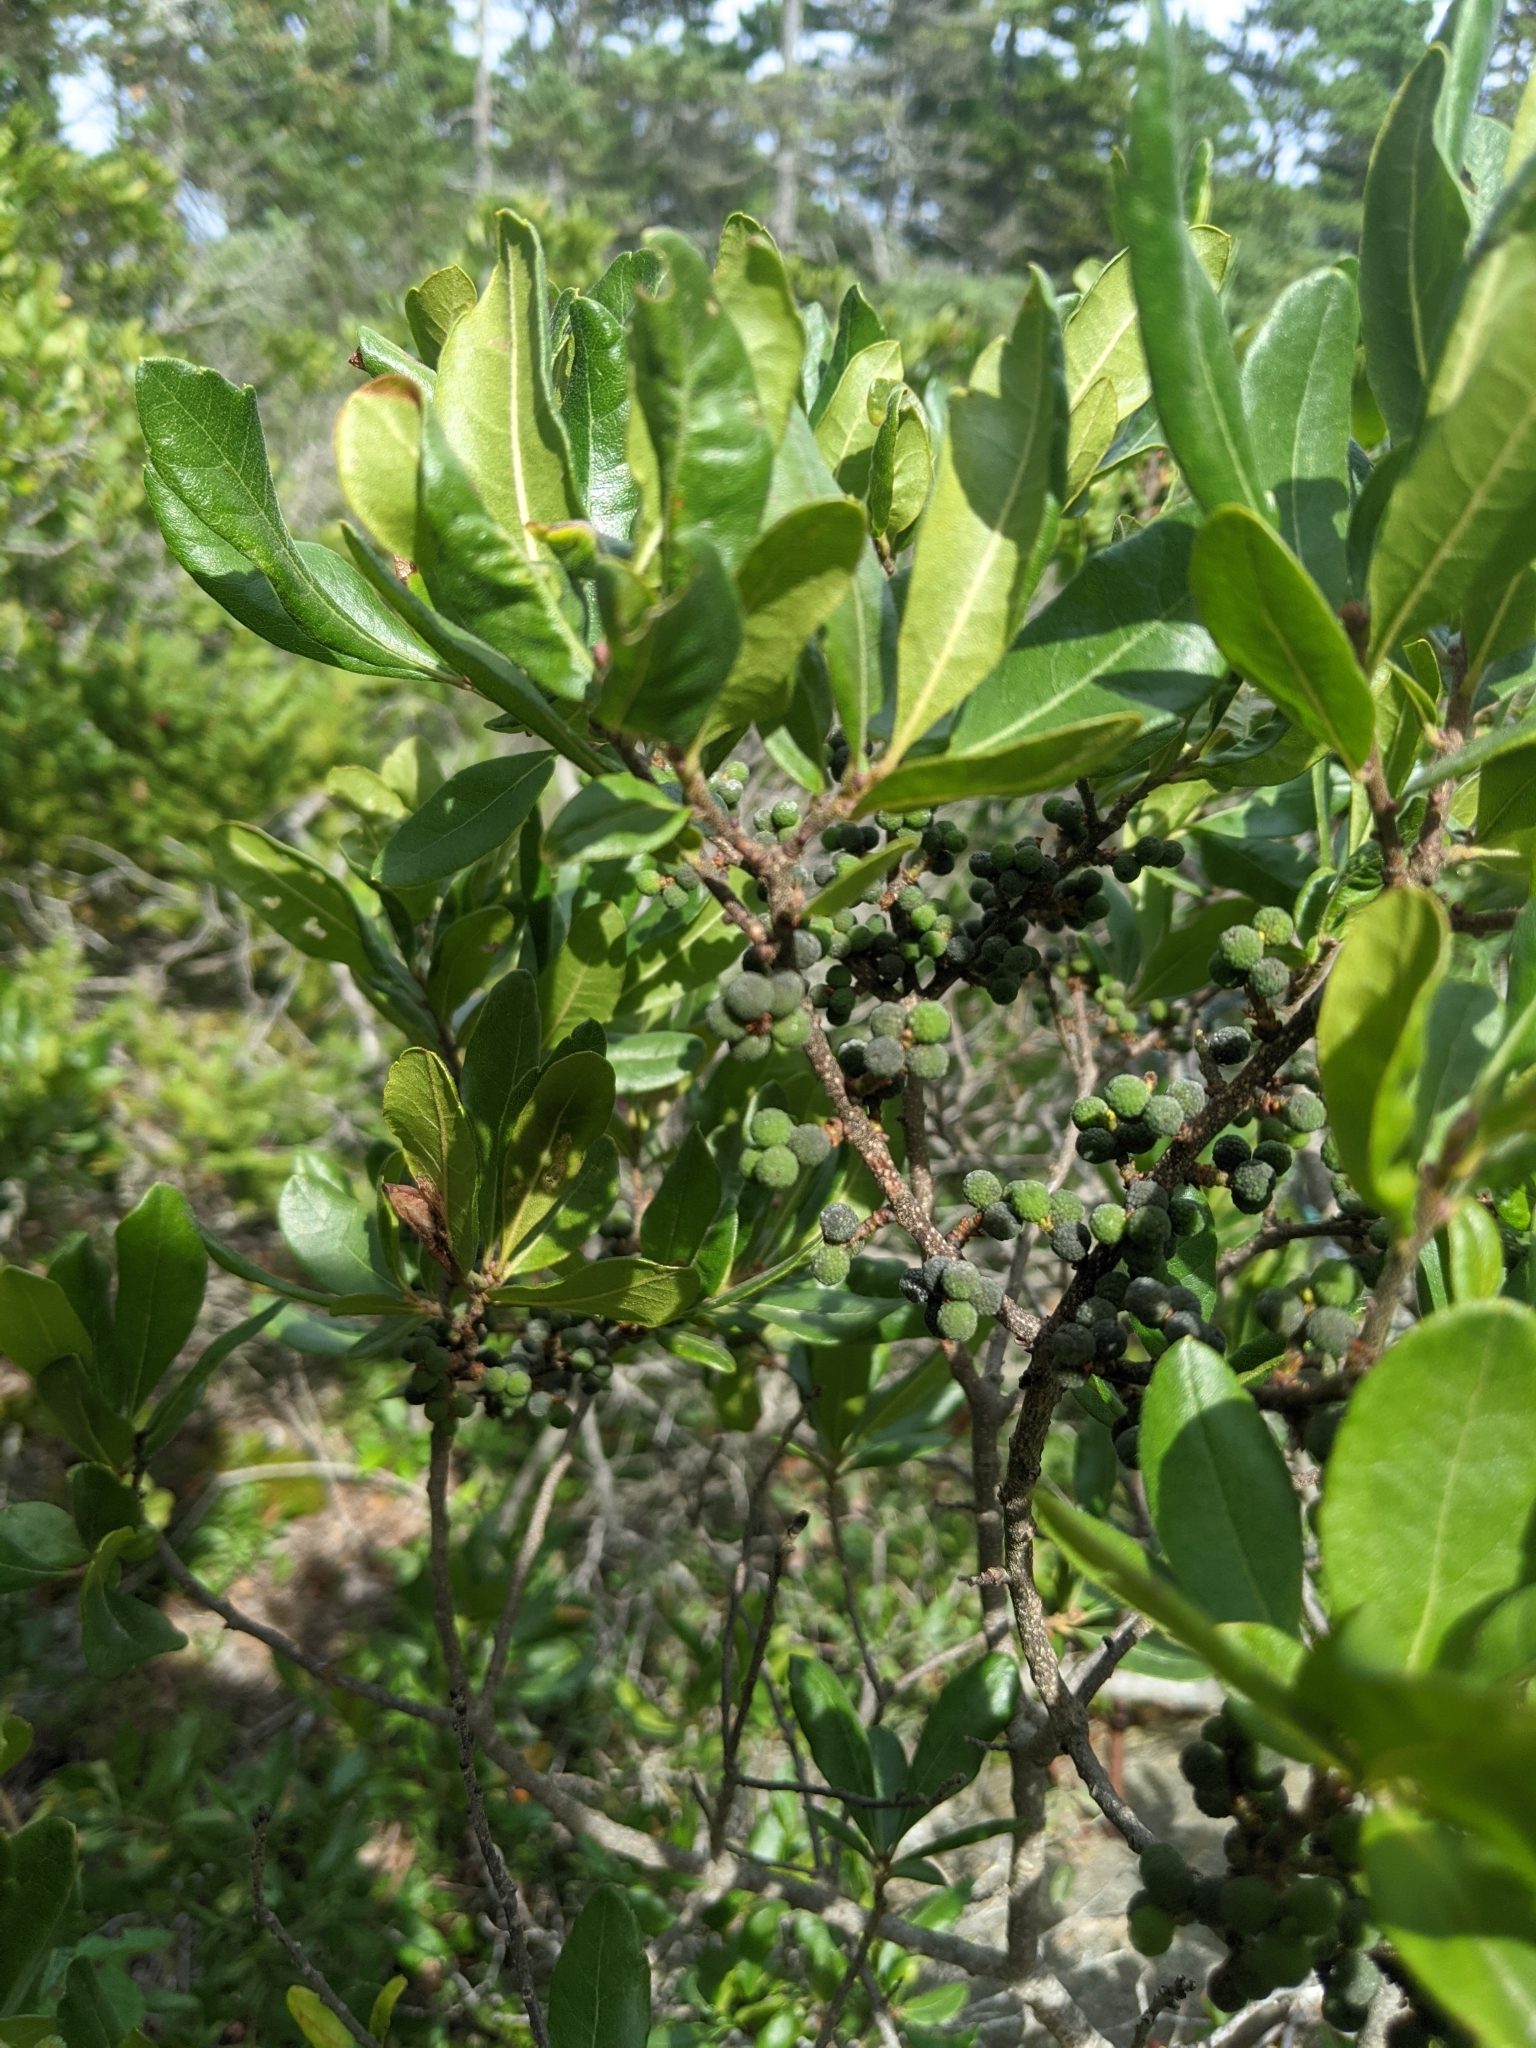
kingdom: Plantae
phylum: Tracheophyta
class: Magnoliopsida
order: Fagales
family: Myricaceae
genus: Morella
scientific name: Morella pensylvanica
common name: Northern bayberry
